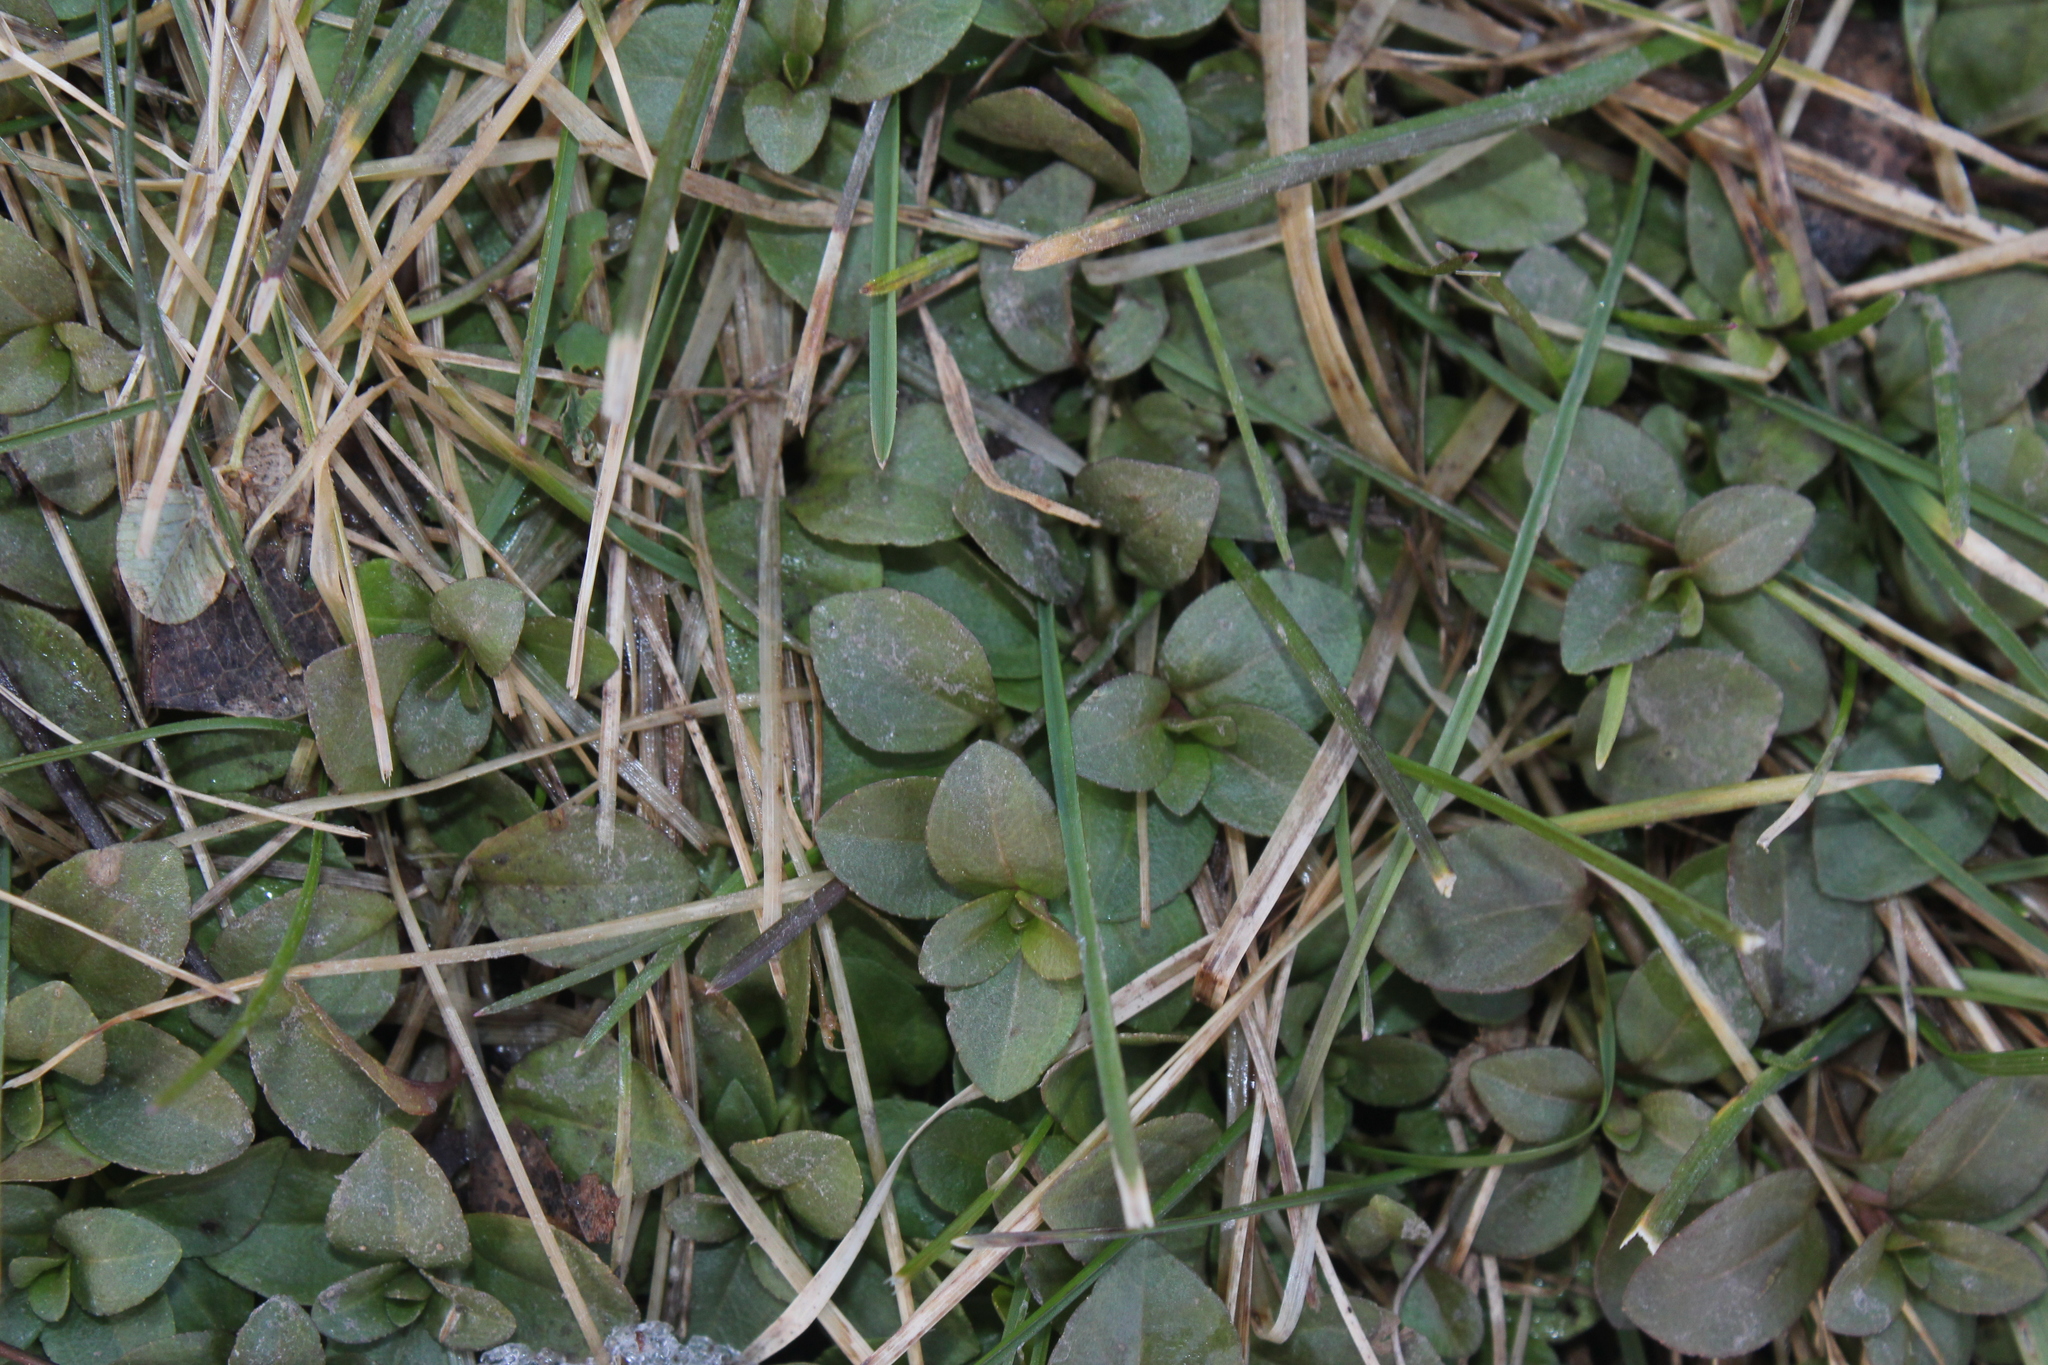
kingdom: Plantae
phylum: Tracheophyta
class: Magnoliopsida
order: Lamiales
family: Plantaginaceae
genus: Veronica
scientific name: Veronica serpyllifolia
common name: Thyme-leaved speedwell
